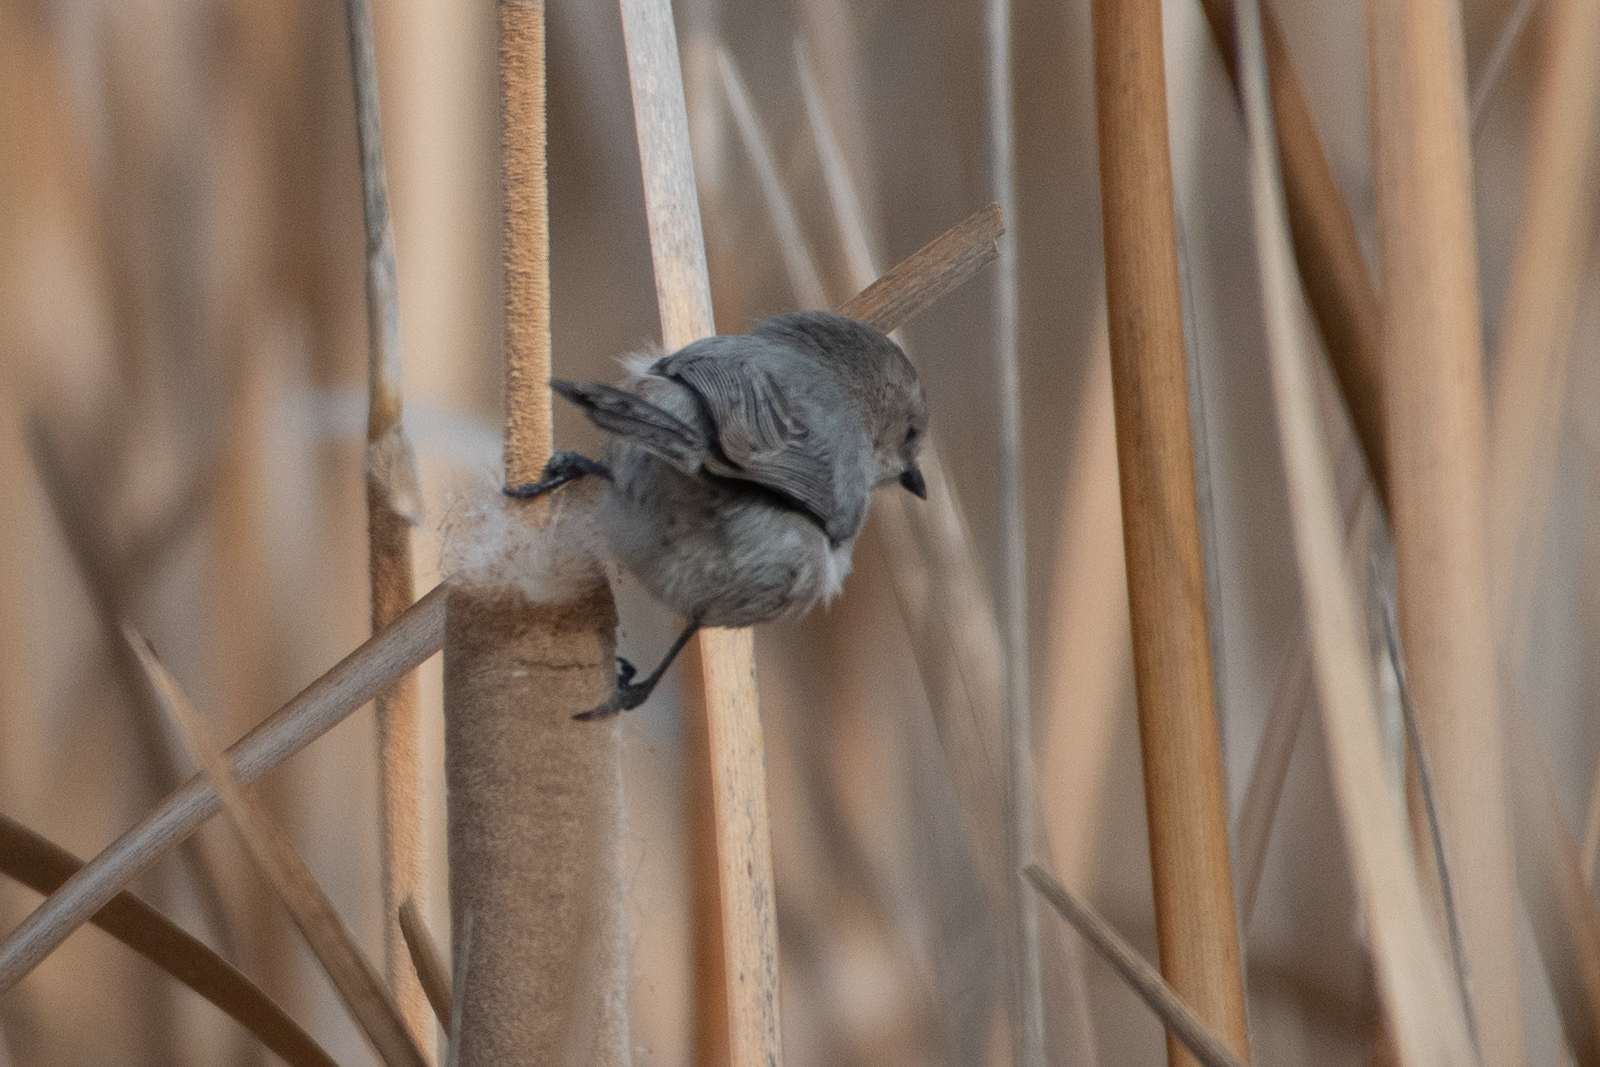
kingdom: Animalia
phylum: Chordata
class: Aves
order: Passeriformes
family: Aegithalidae
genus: Psaltriparus
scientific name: Psaltriparus minimus
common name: American bushtit
